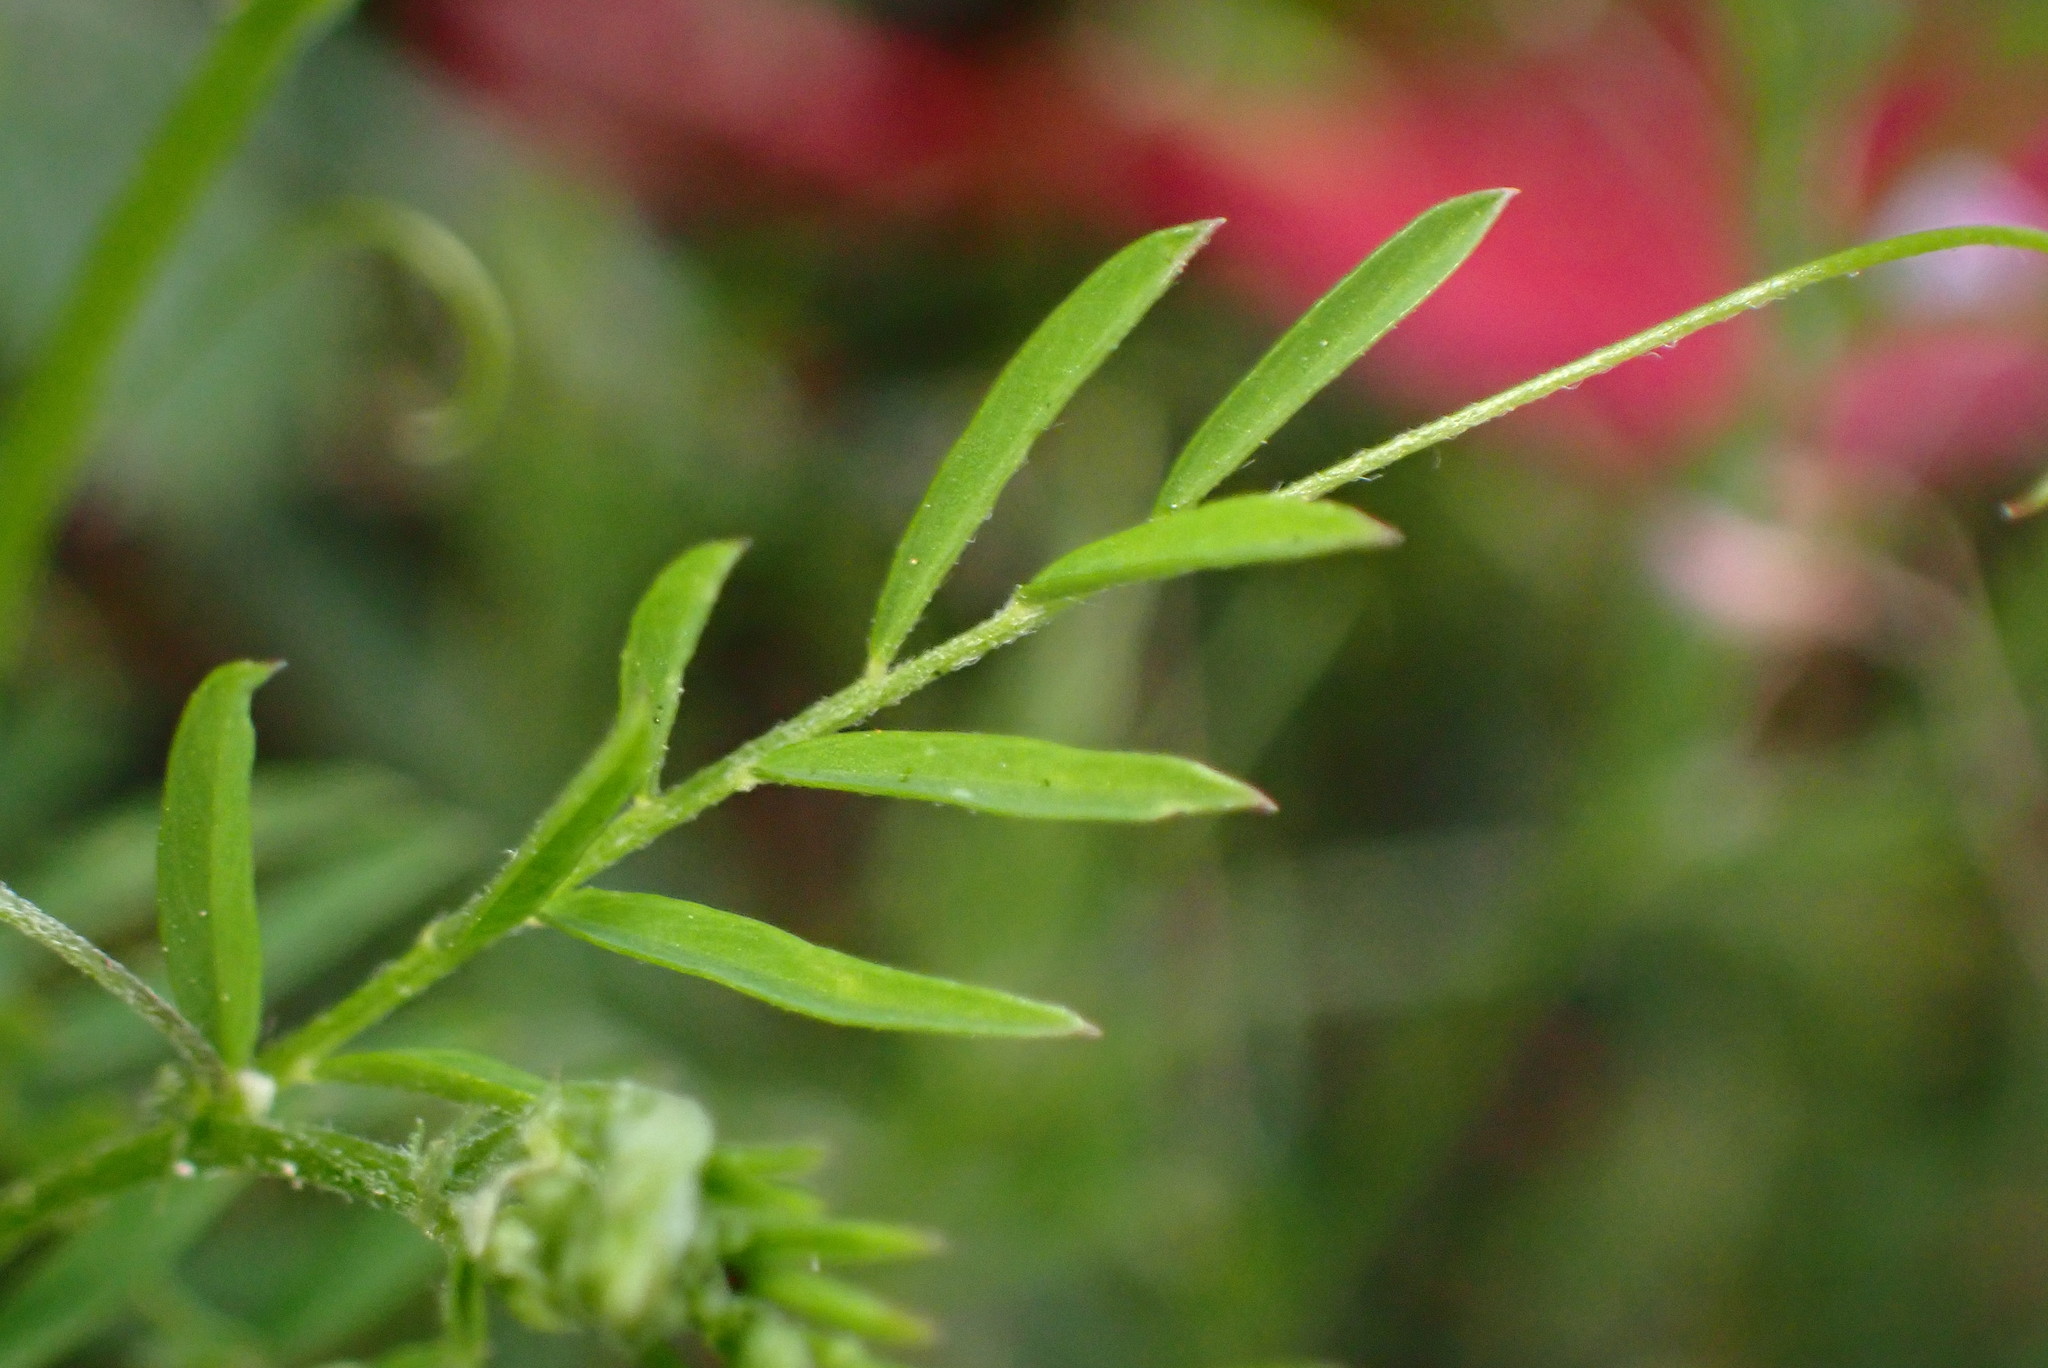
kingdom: Plantae
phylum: Tracheophyta
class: Magnoliopsida
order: Fabales
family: Fabaceae
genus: Vicia
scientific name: Vicia tetrasperma
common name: Smooth tare
